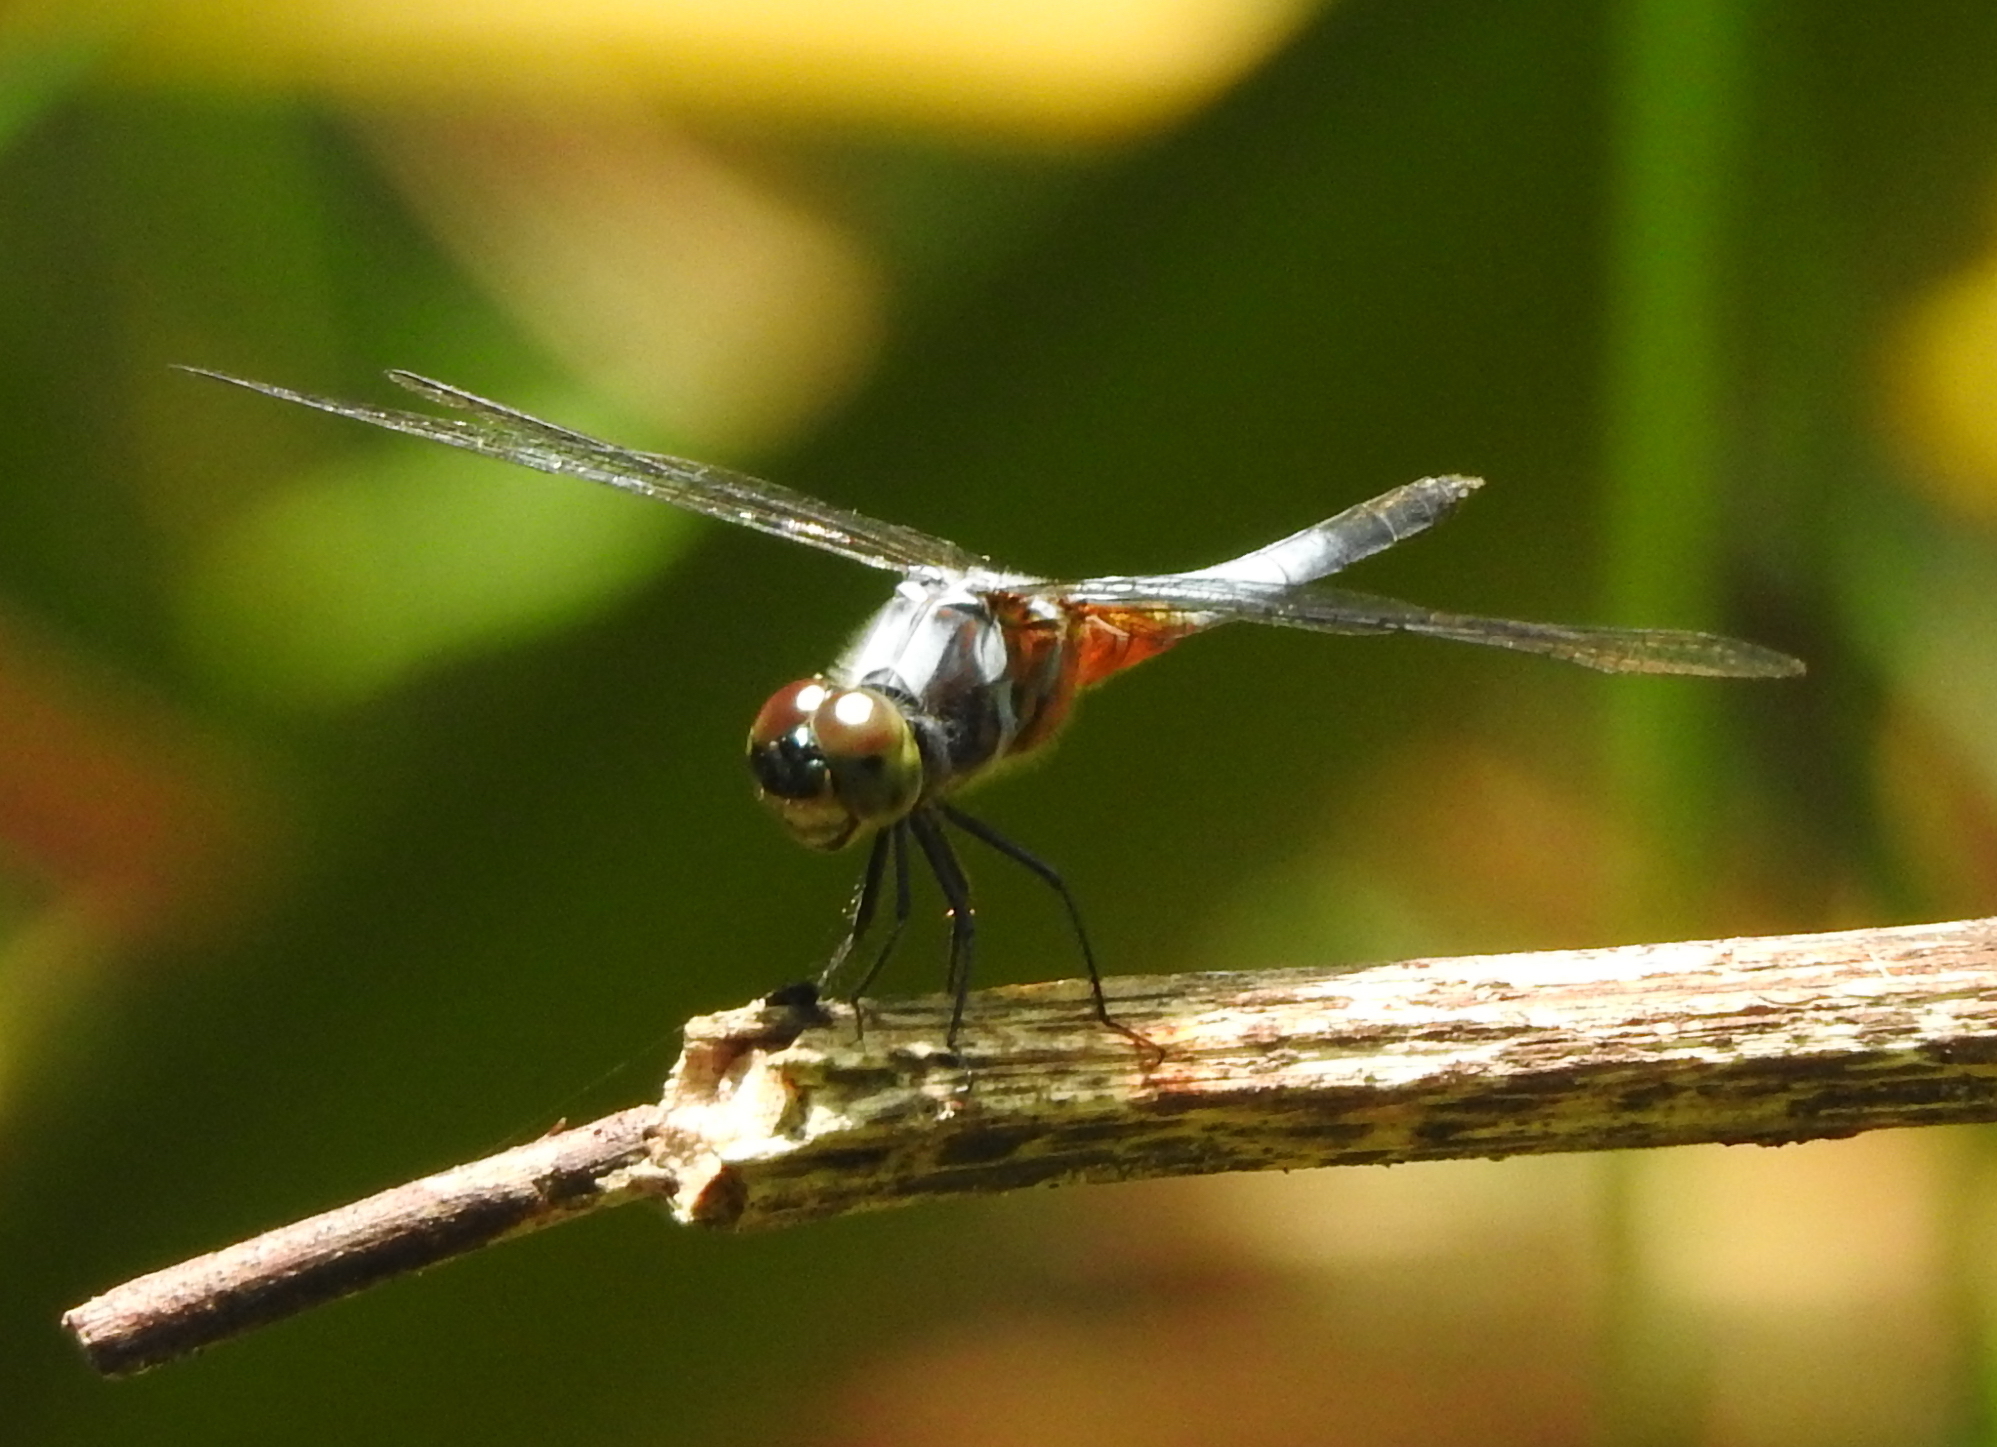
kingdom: Animalia
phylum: Arthropoda
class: Insecta
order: Odonata
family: Libellulidae
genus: Brachydiplax
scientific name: Brachydiplax chalybea
